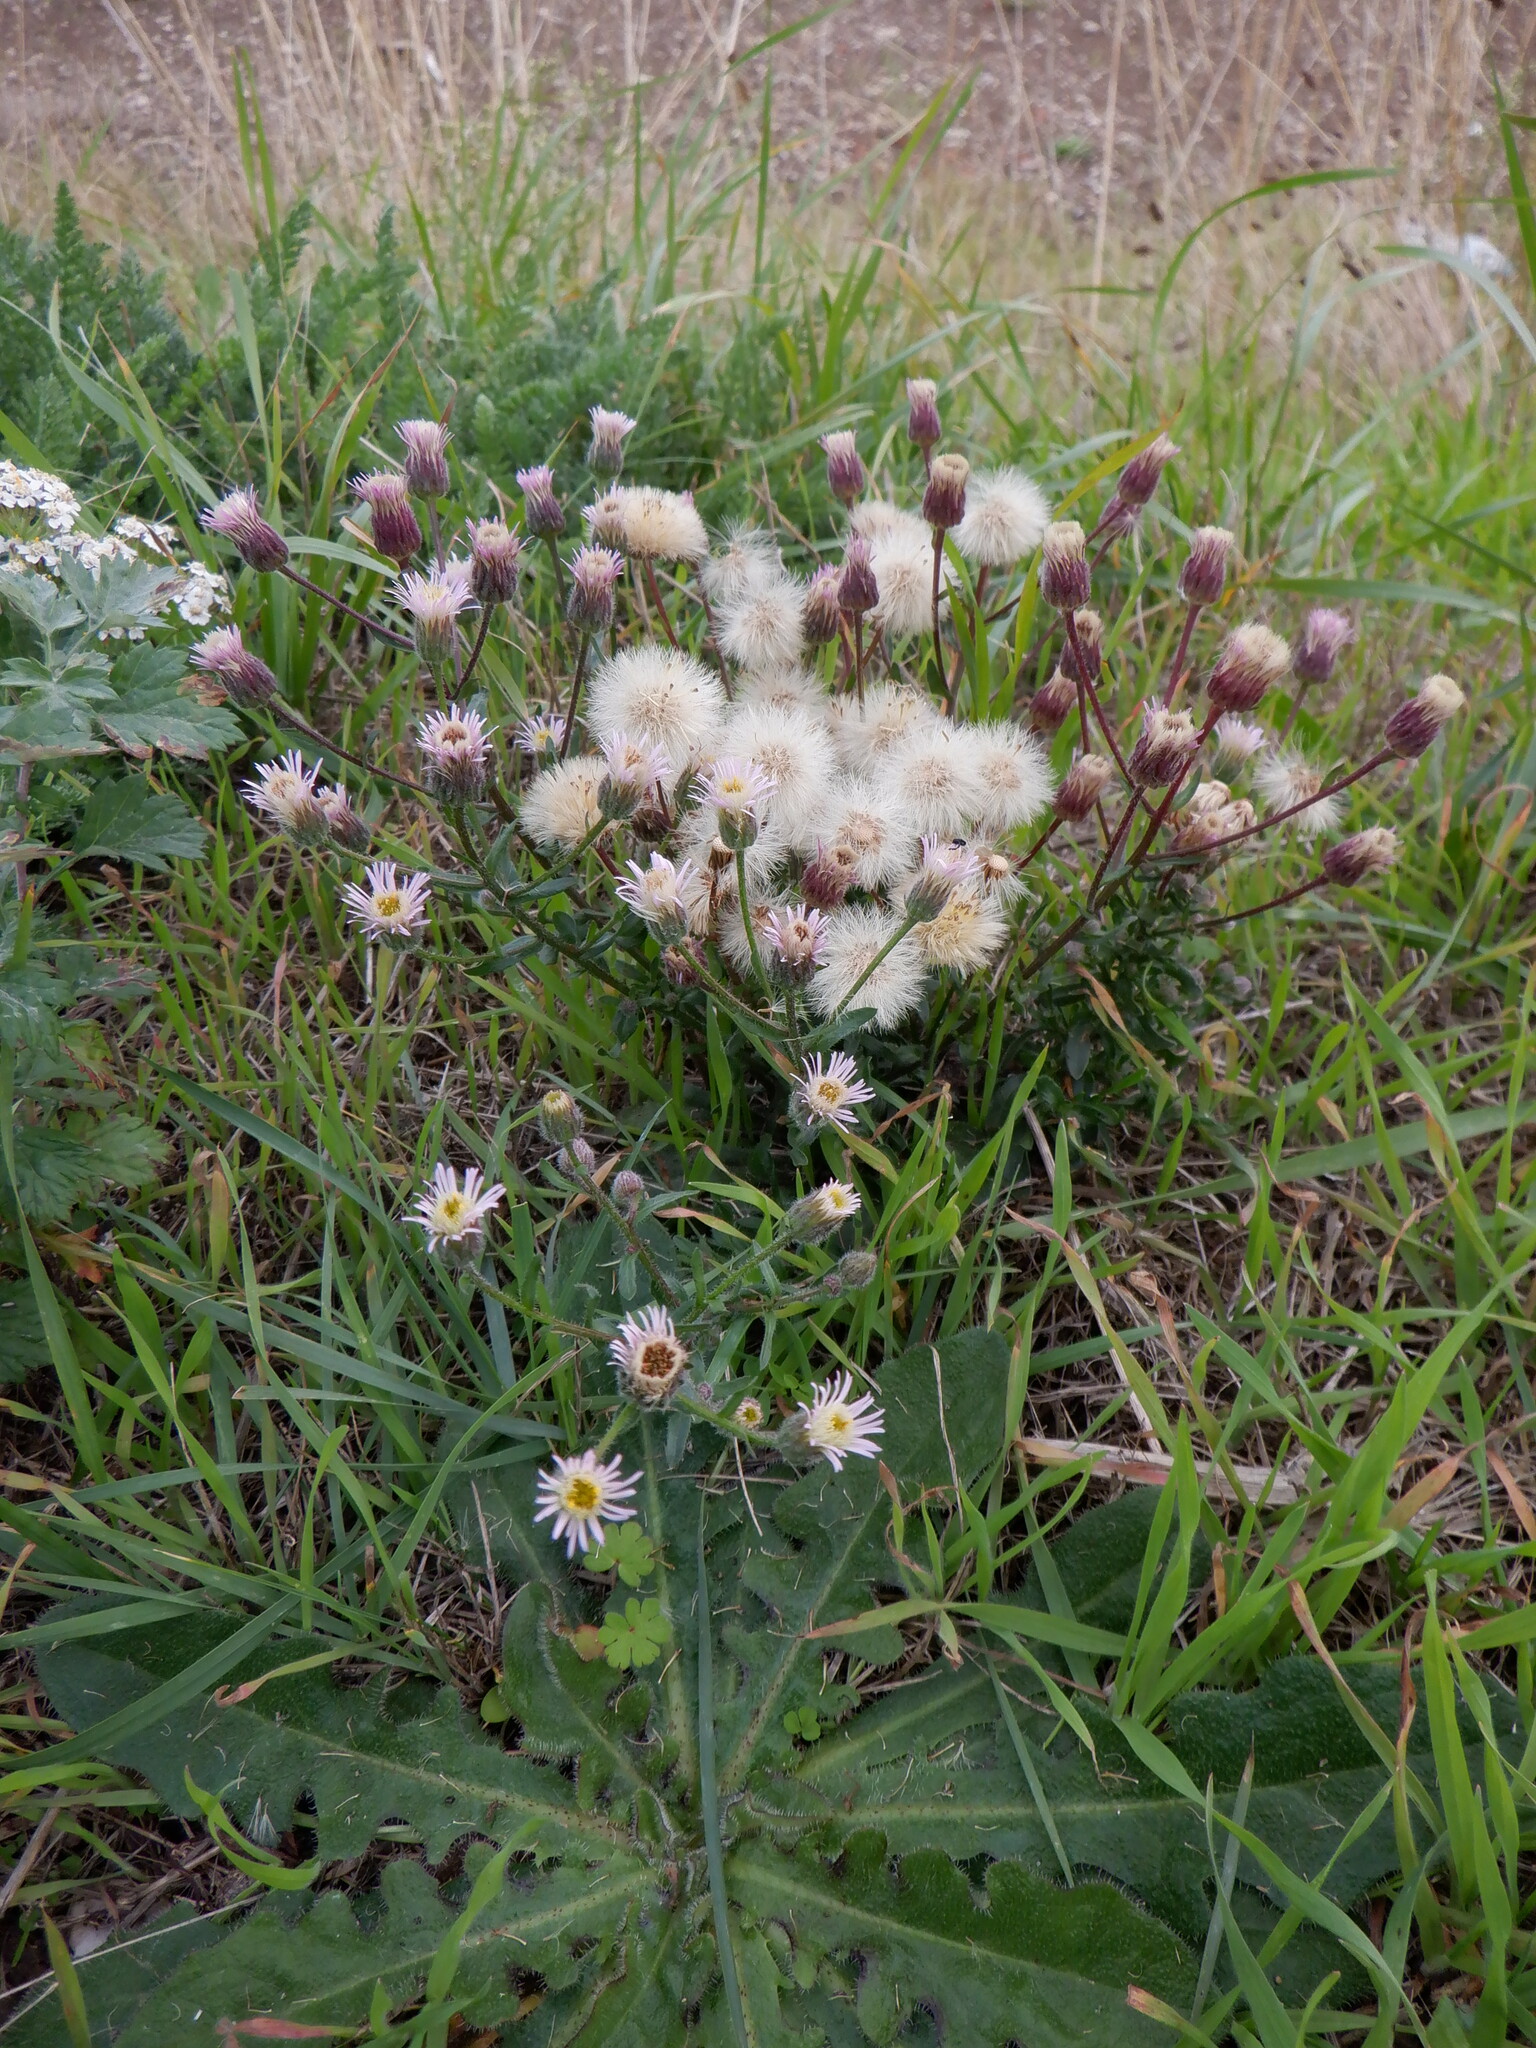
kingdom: Plantae
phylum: Tracheophyta
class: Magnoliopsida
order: Asterales
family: Asteraceae
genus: Erigeron
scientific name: Erigeron acris
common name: Blue fleabane
